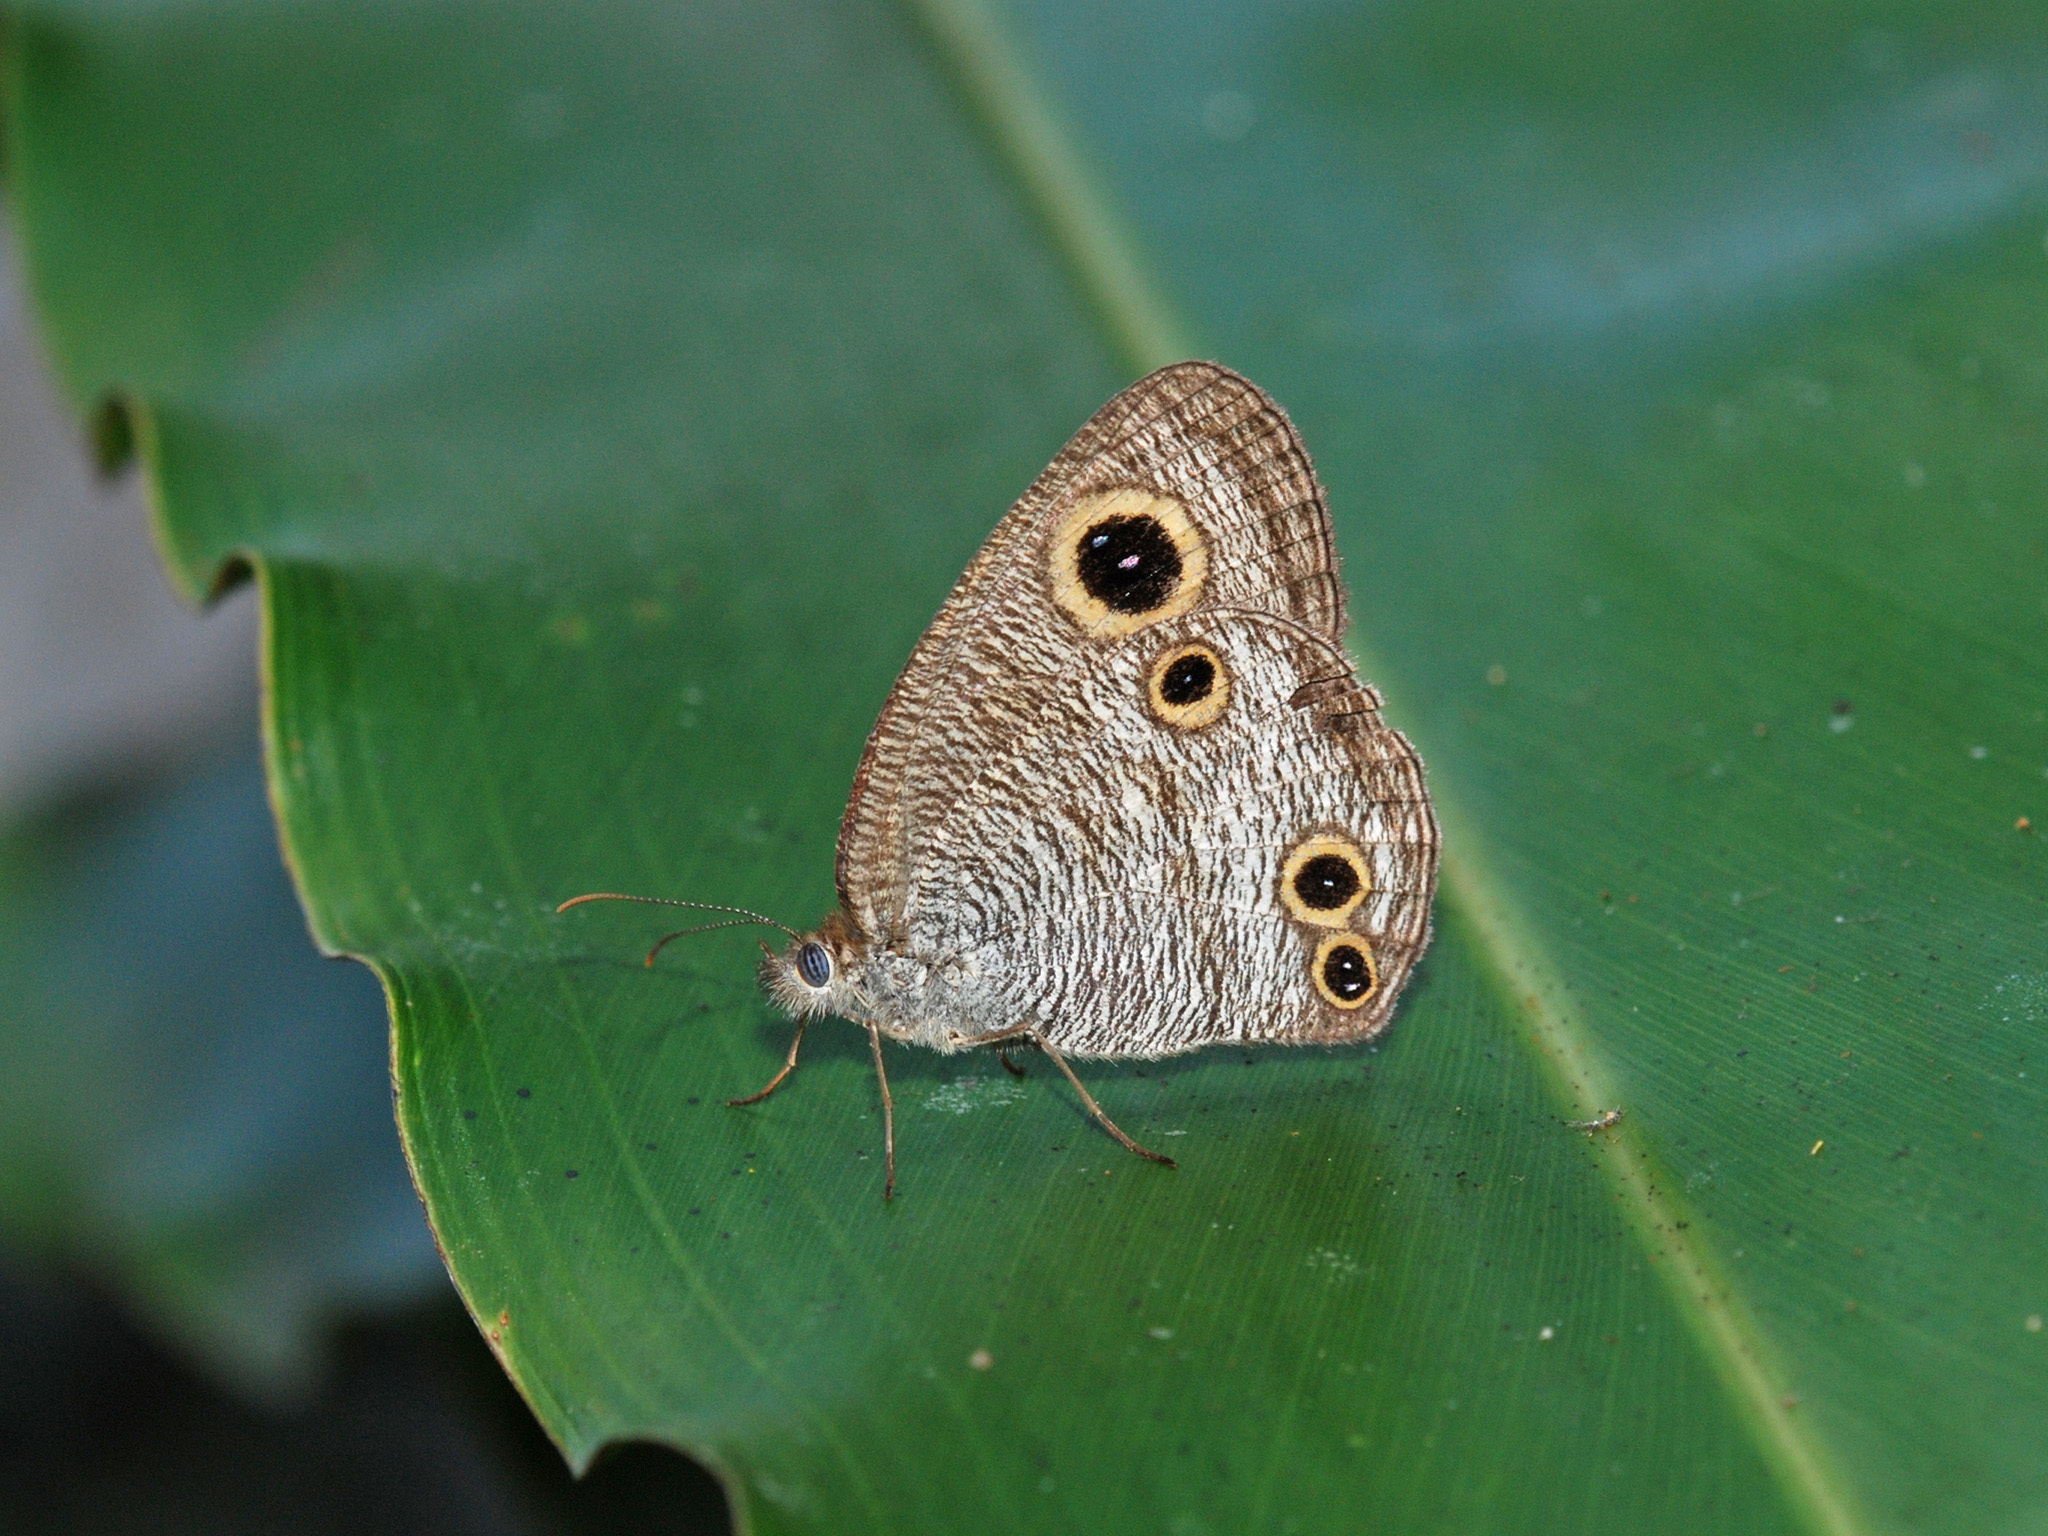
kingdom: Animalia
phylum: Arthropoda
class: Insecta
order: Lepidoptera
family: Nymphalidae
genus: Ypthima
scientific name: Ypthima pandocus
